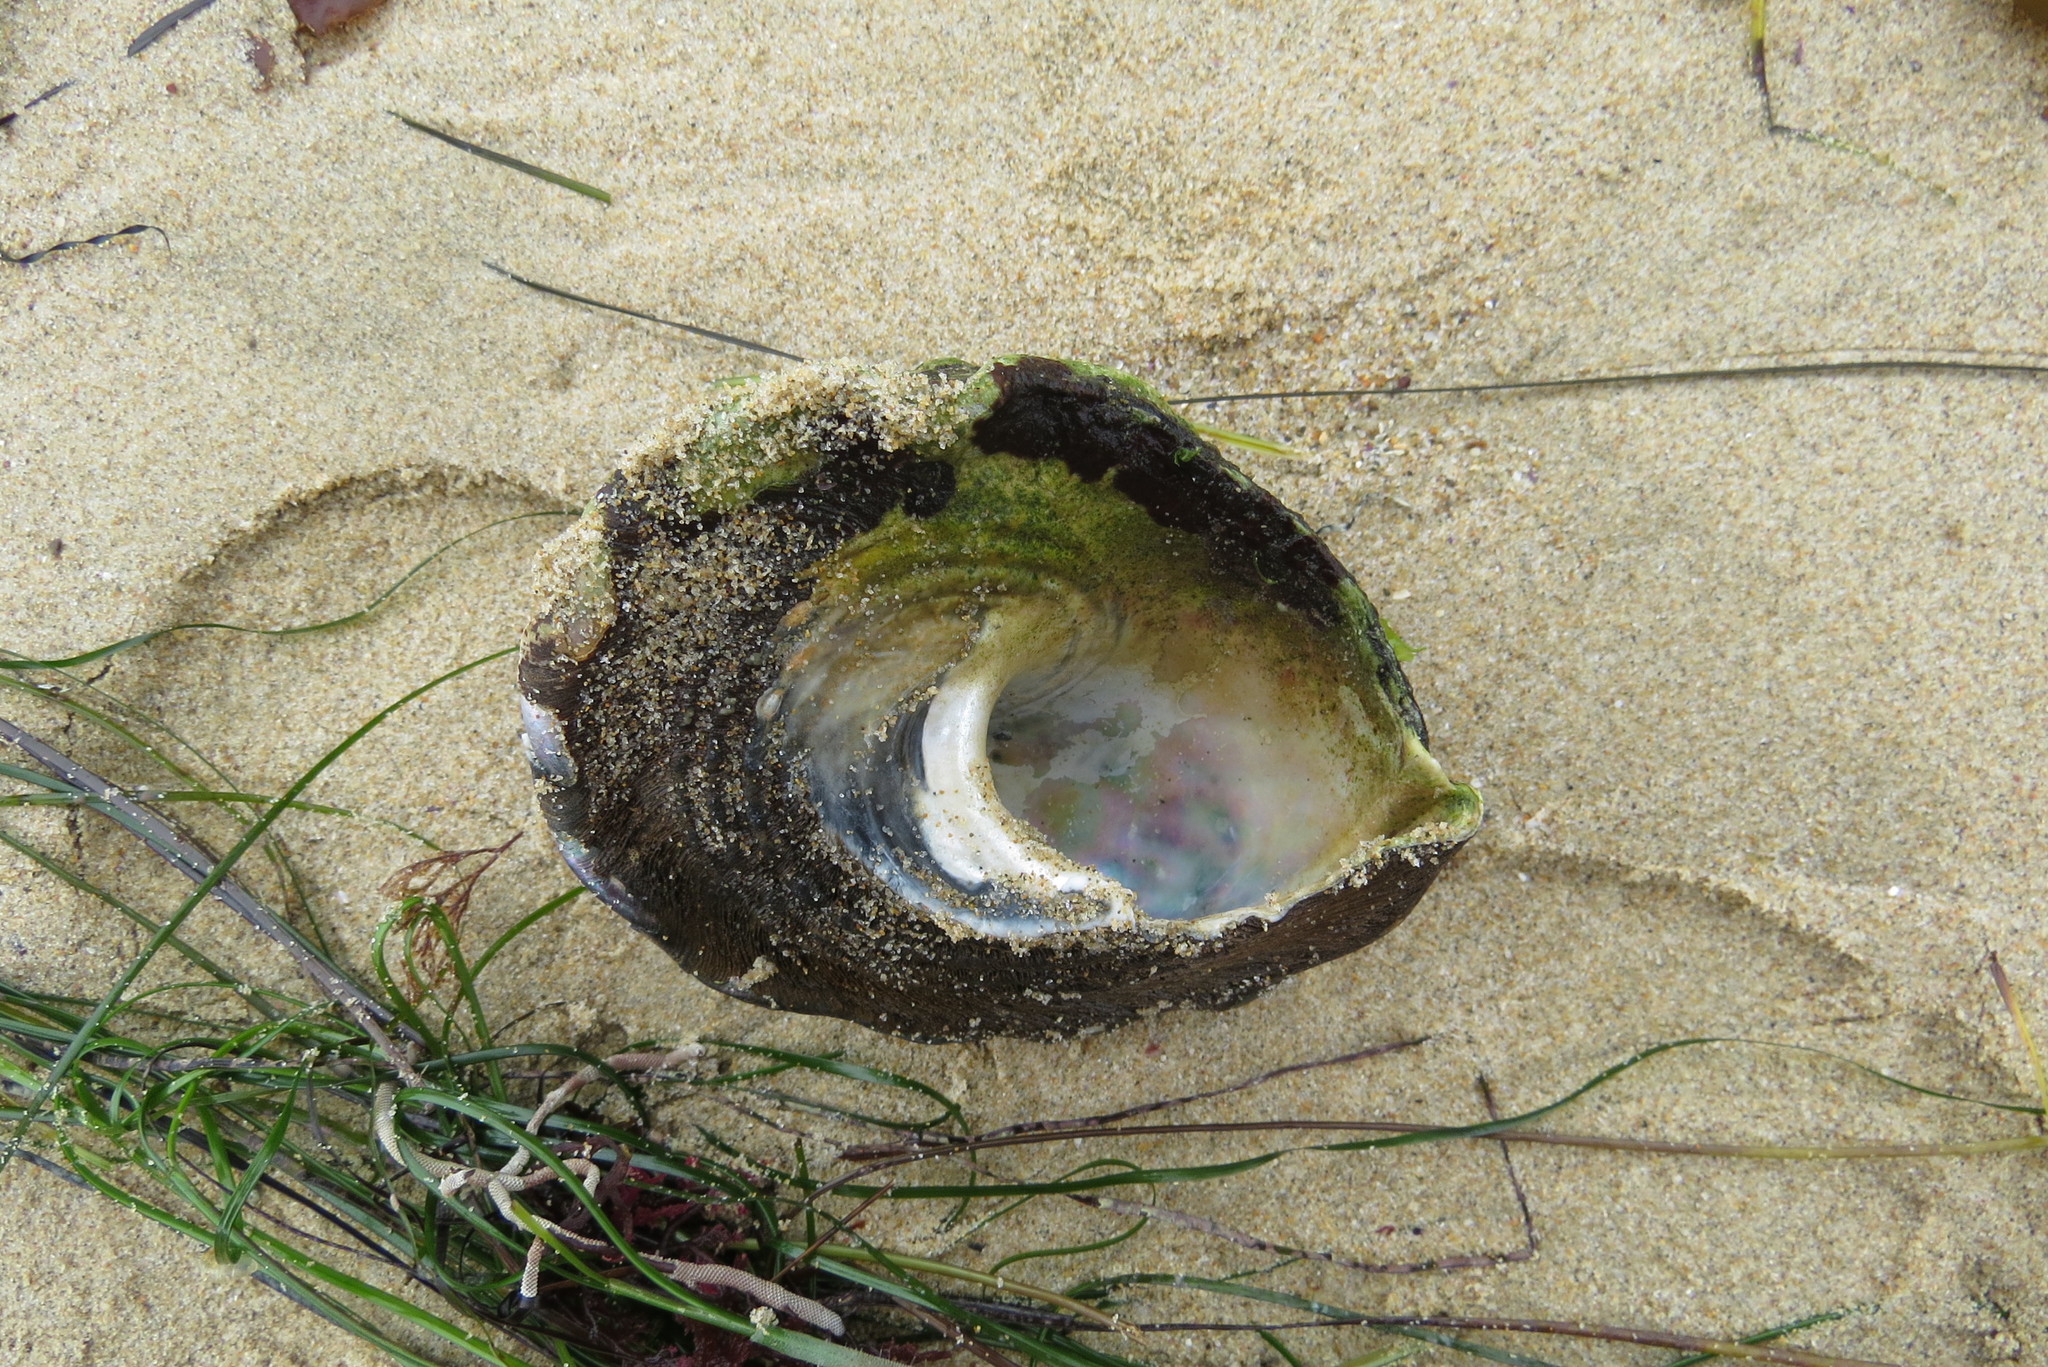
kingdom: Animalia
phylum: Mollusca
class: Gastropoda
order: Trochida
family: Turbinidae
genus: Megastraea
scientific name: Megastraea undosa
